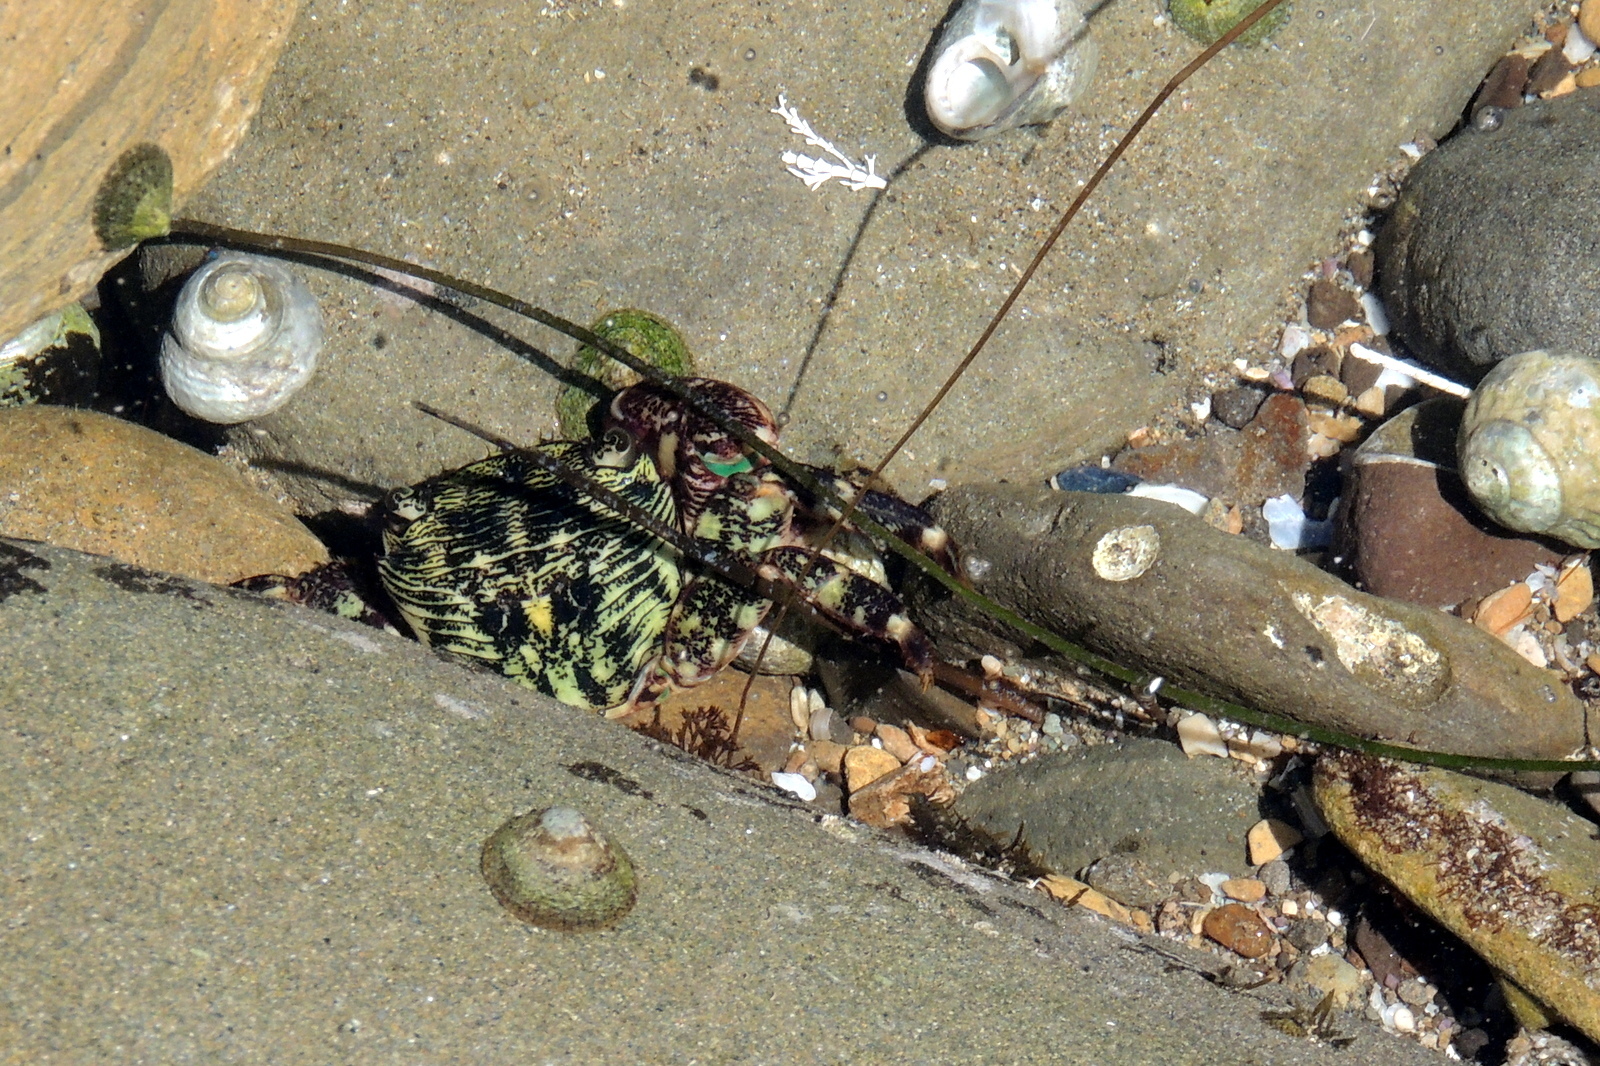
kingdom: Animalia
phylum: Arthropoda
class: Malacostraca
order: Decapoda
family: Grapsidae
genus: Pachygrapsus
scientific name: Pachygrapsus crassipes
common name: Striped shore crab
